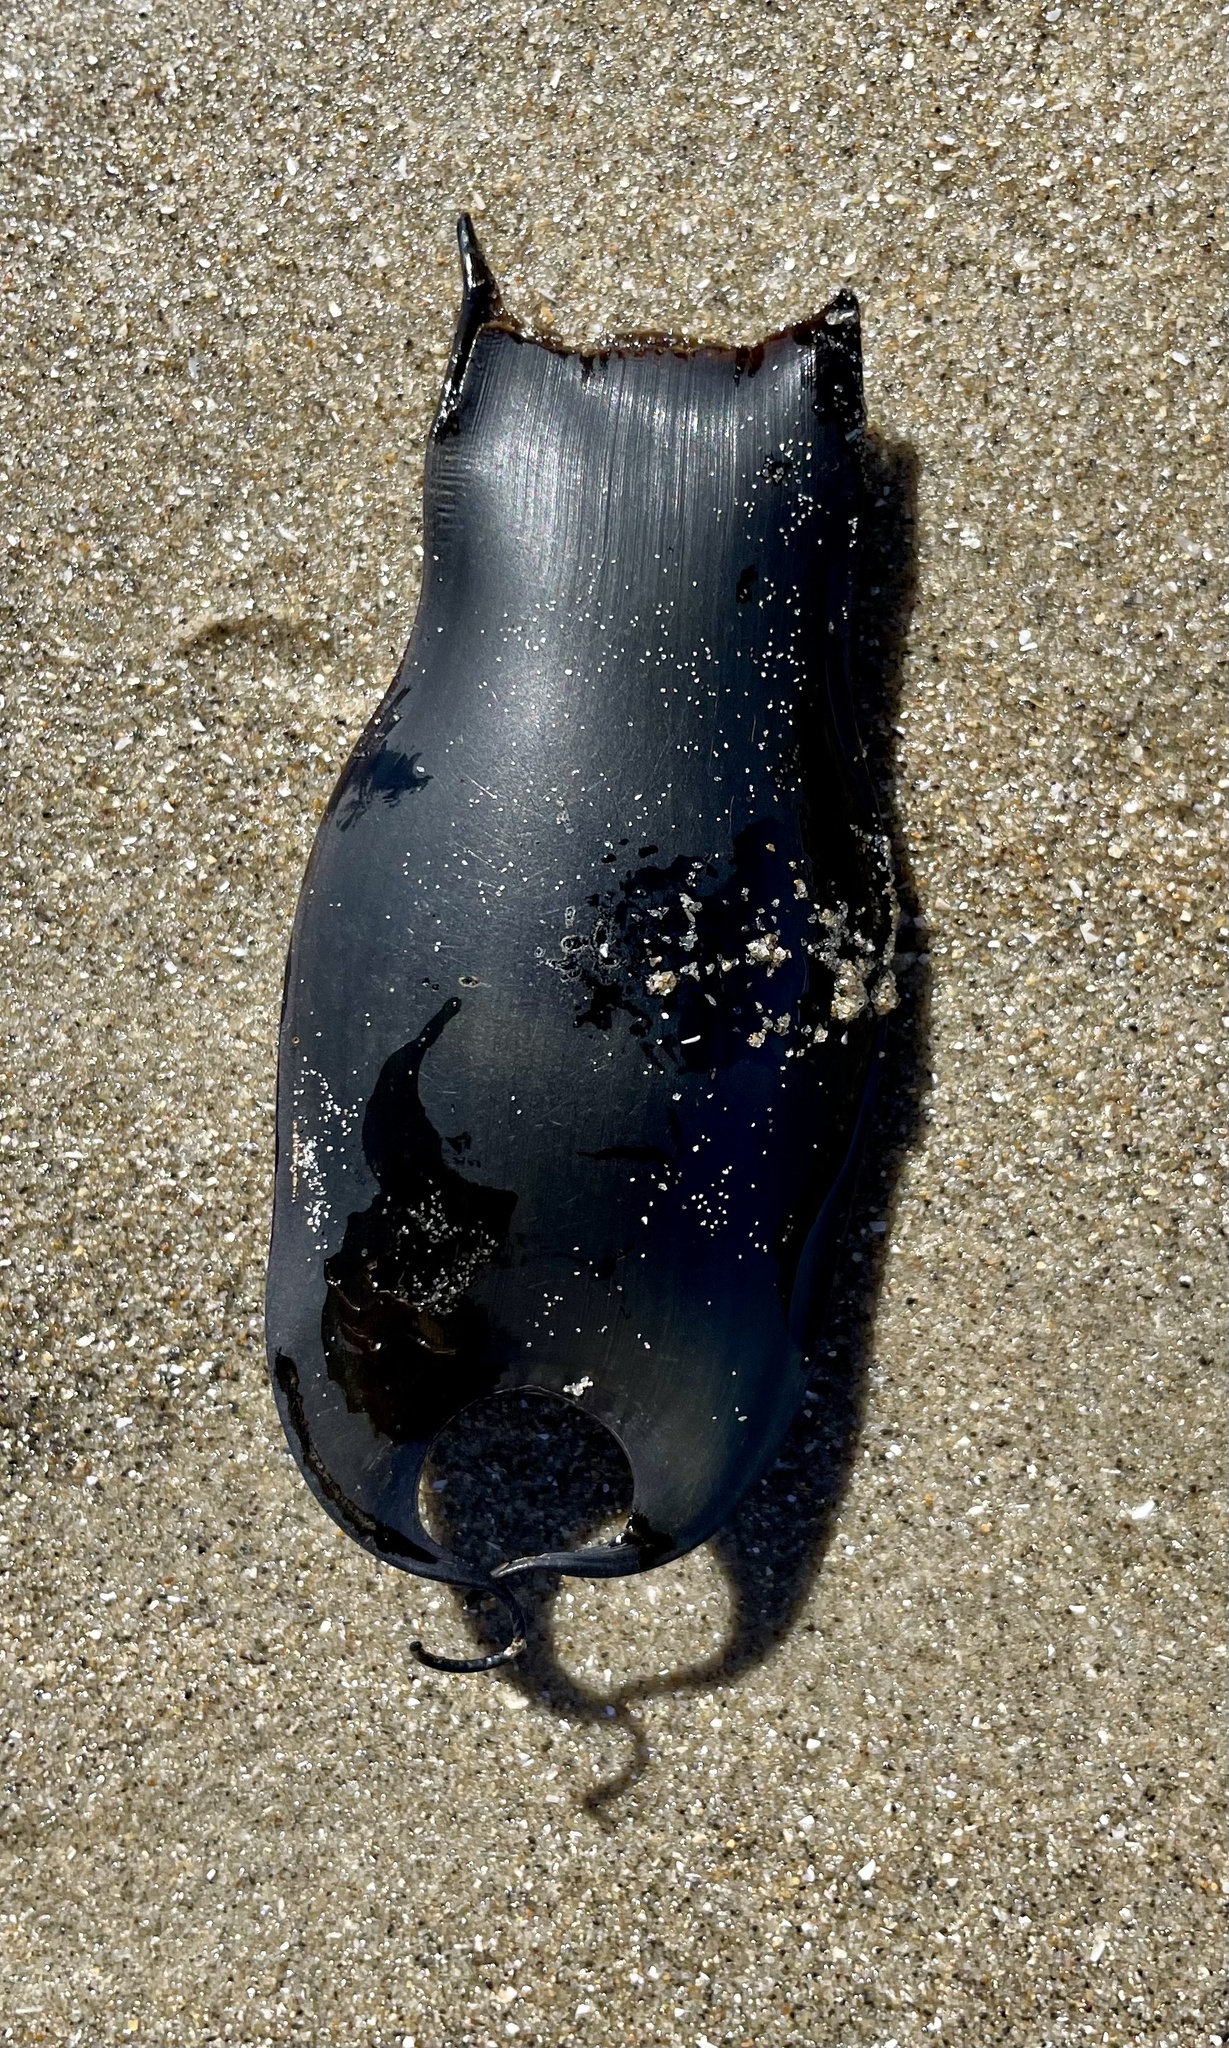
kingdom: Animalia
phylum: Chordata
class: Elasmobranchii
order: Carcharhiniformes
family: Scyliorhinidae
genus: Cephaloscyllium
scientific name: Cephaloscyllium ventriosum
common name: Swell shark
